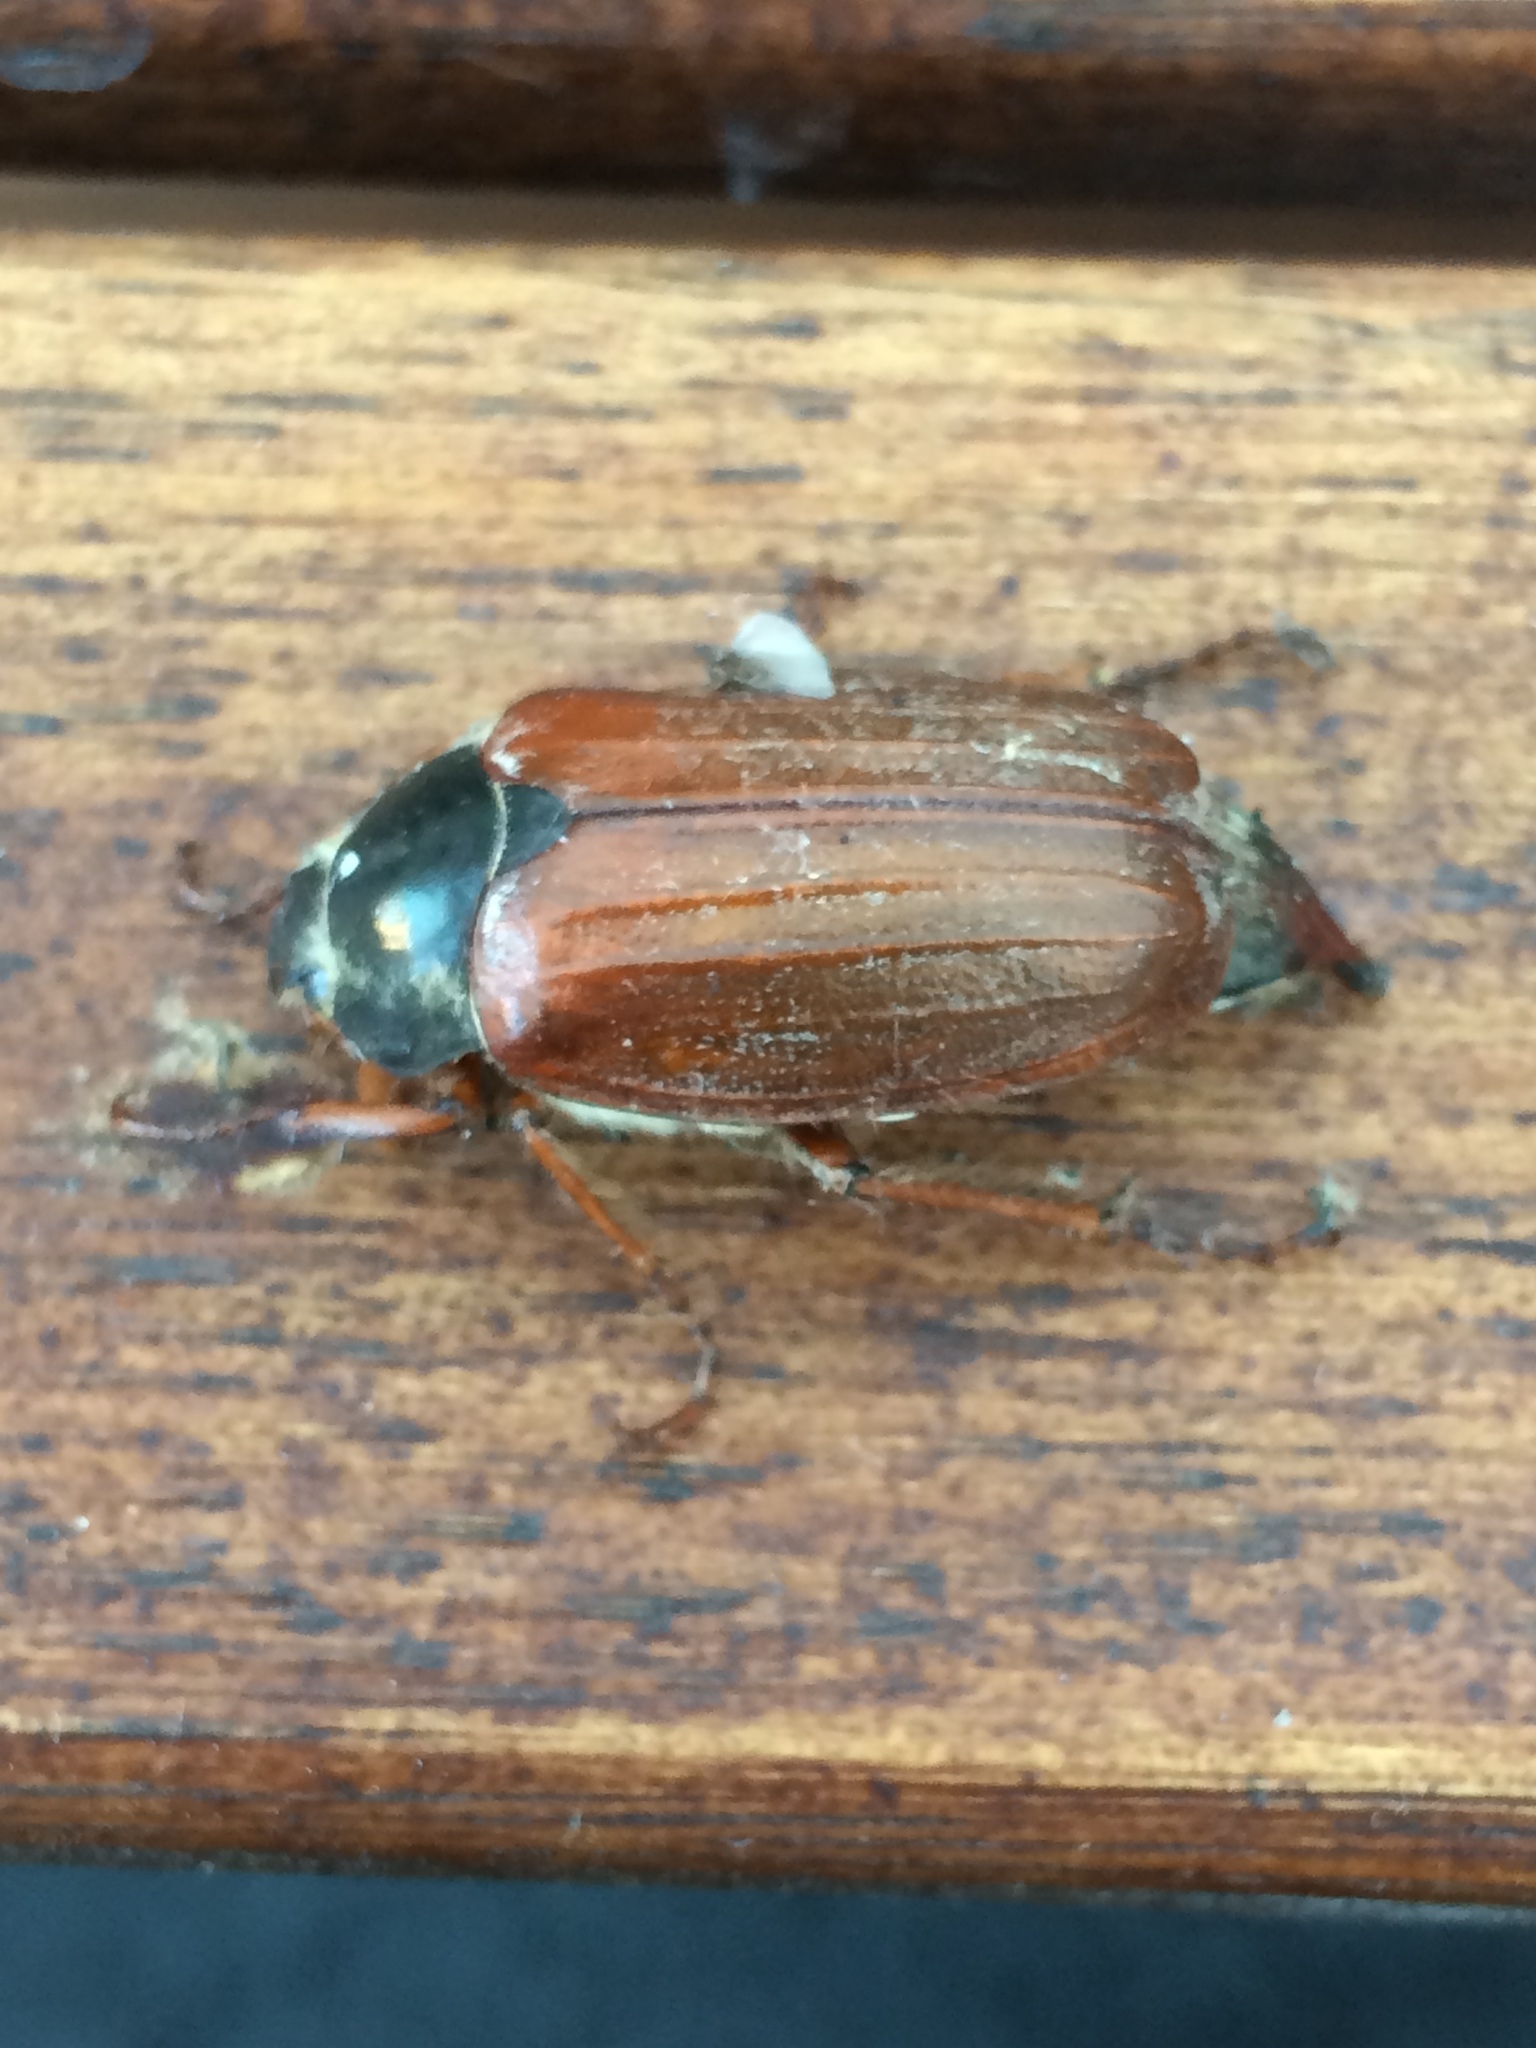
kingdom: Animalia
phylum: Arthropoda
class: Insecta
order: Coleoptera
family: Scarabaeidae
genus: Melolontha
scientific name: Melolontha melolontha
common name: Cockchafer maybeetle
